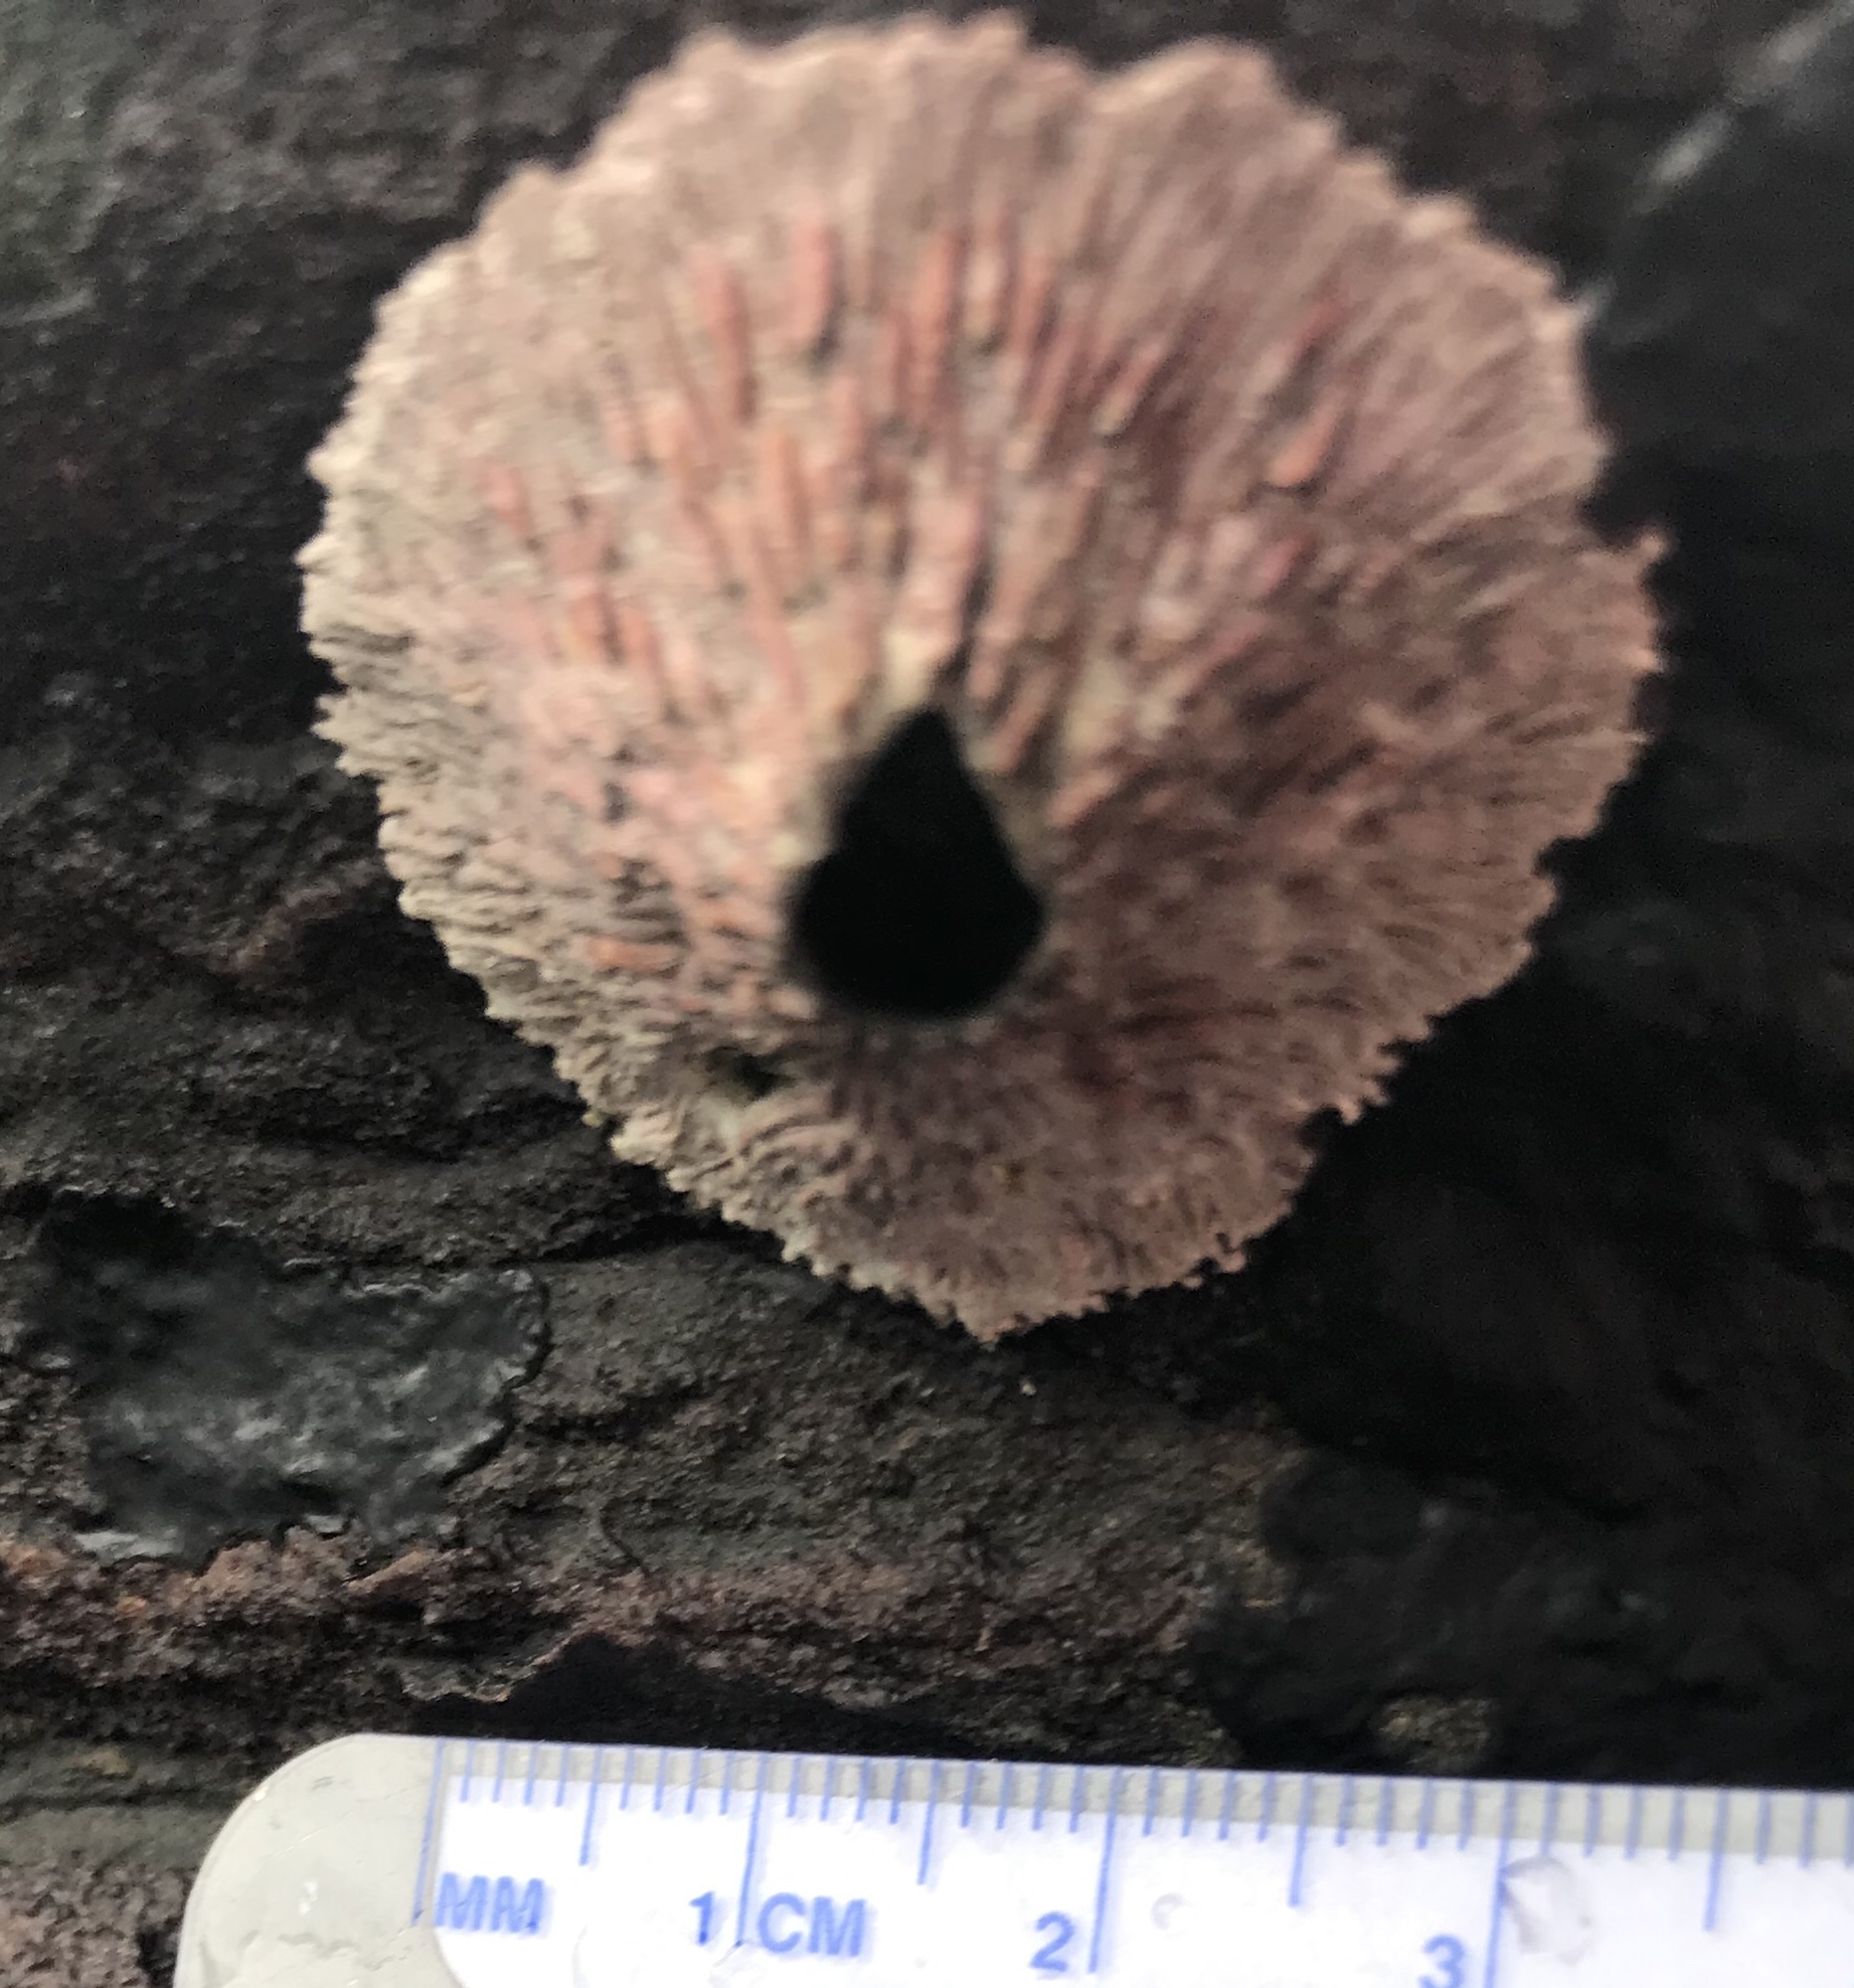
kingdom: Animalia
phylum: Arthropoda
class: Maxillopoda
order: Sessilia
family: Tetraclitidae
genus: Tetraclita
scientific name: Tetraclita rubescens
